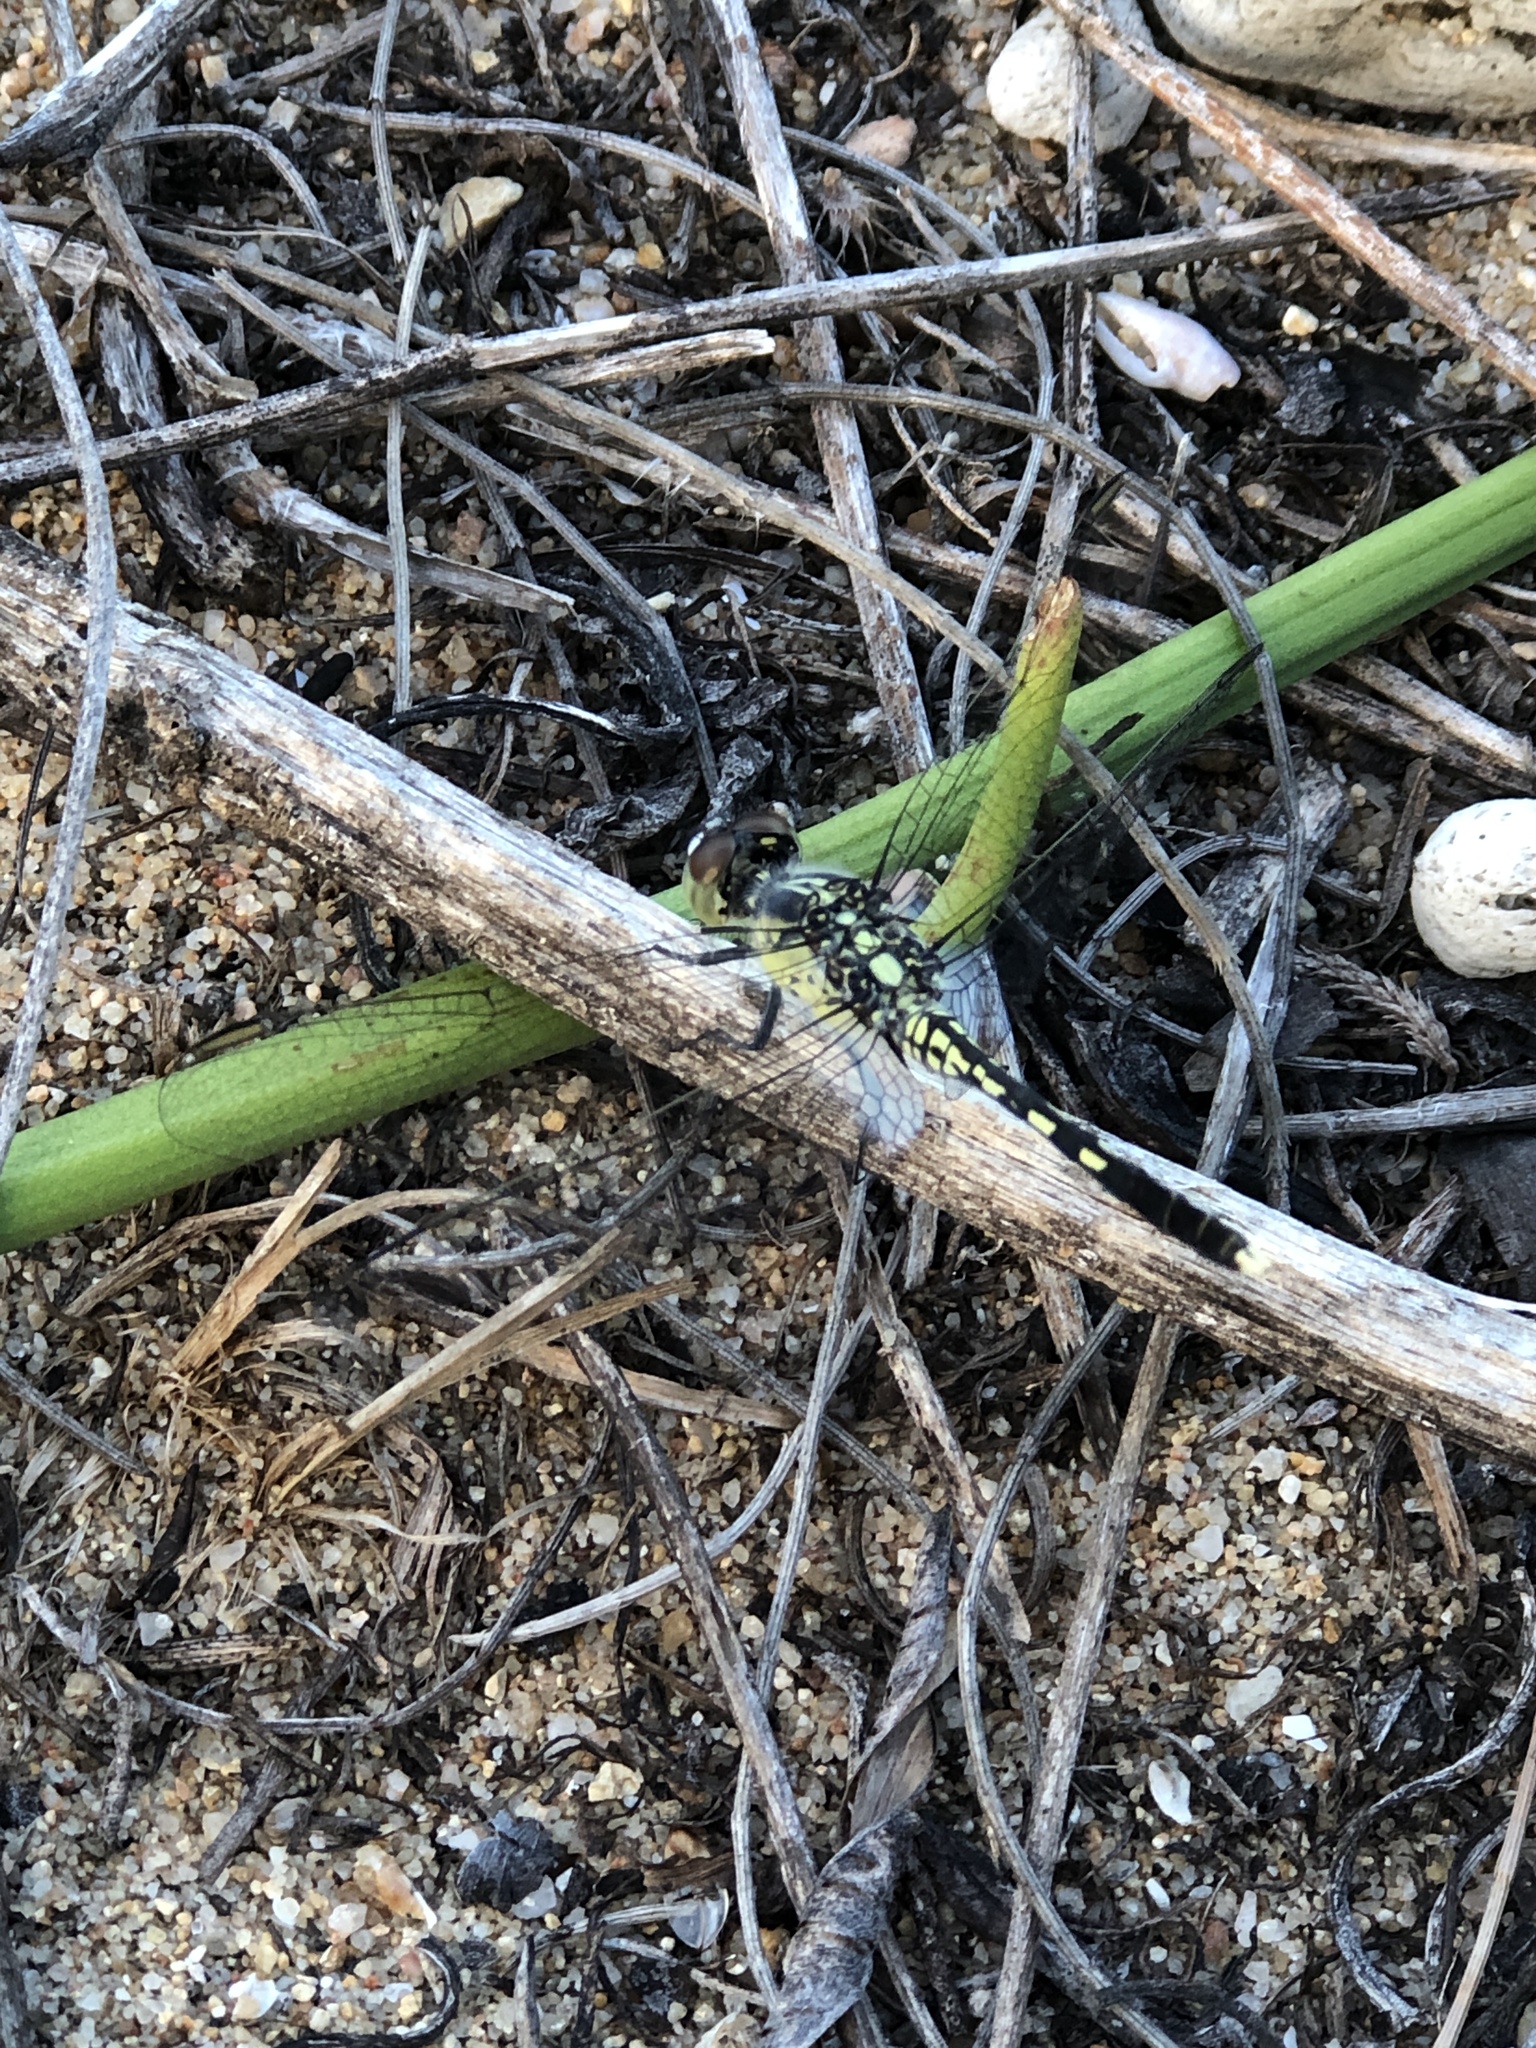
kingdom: Animalia
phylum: Arthropoda
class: Insecta
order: Odonata
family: Libellulidae
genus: Diplacodes
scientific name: Diplacodes trivialis
